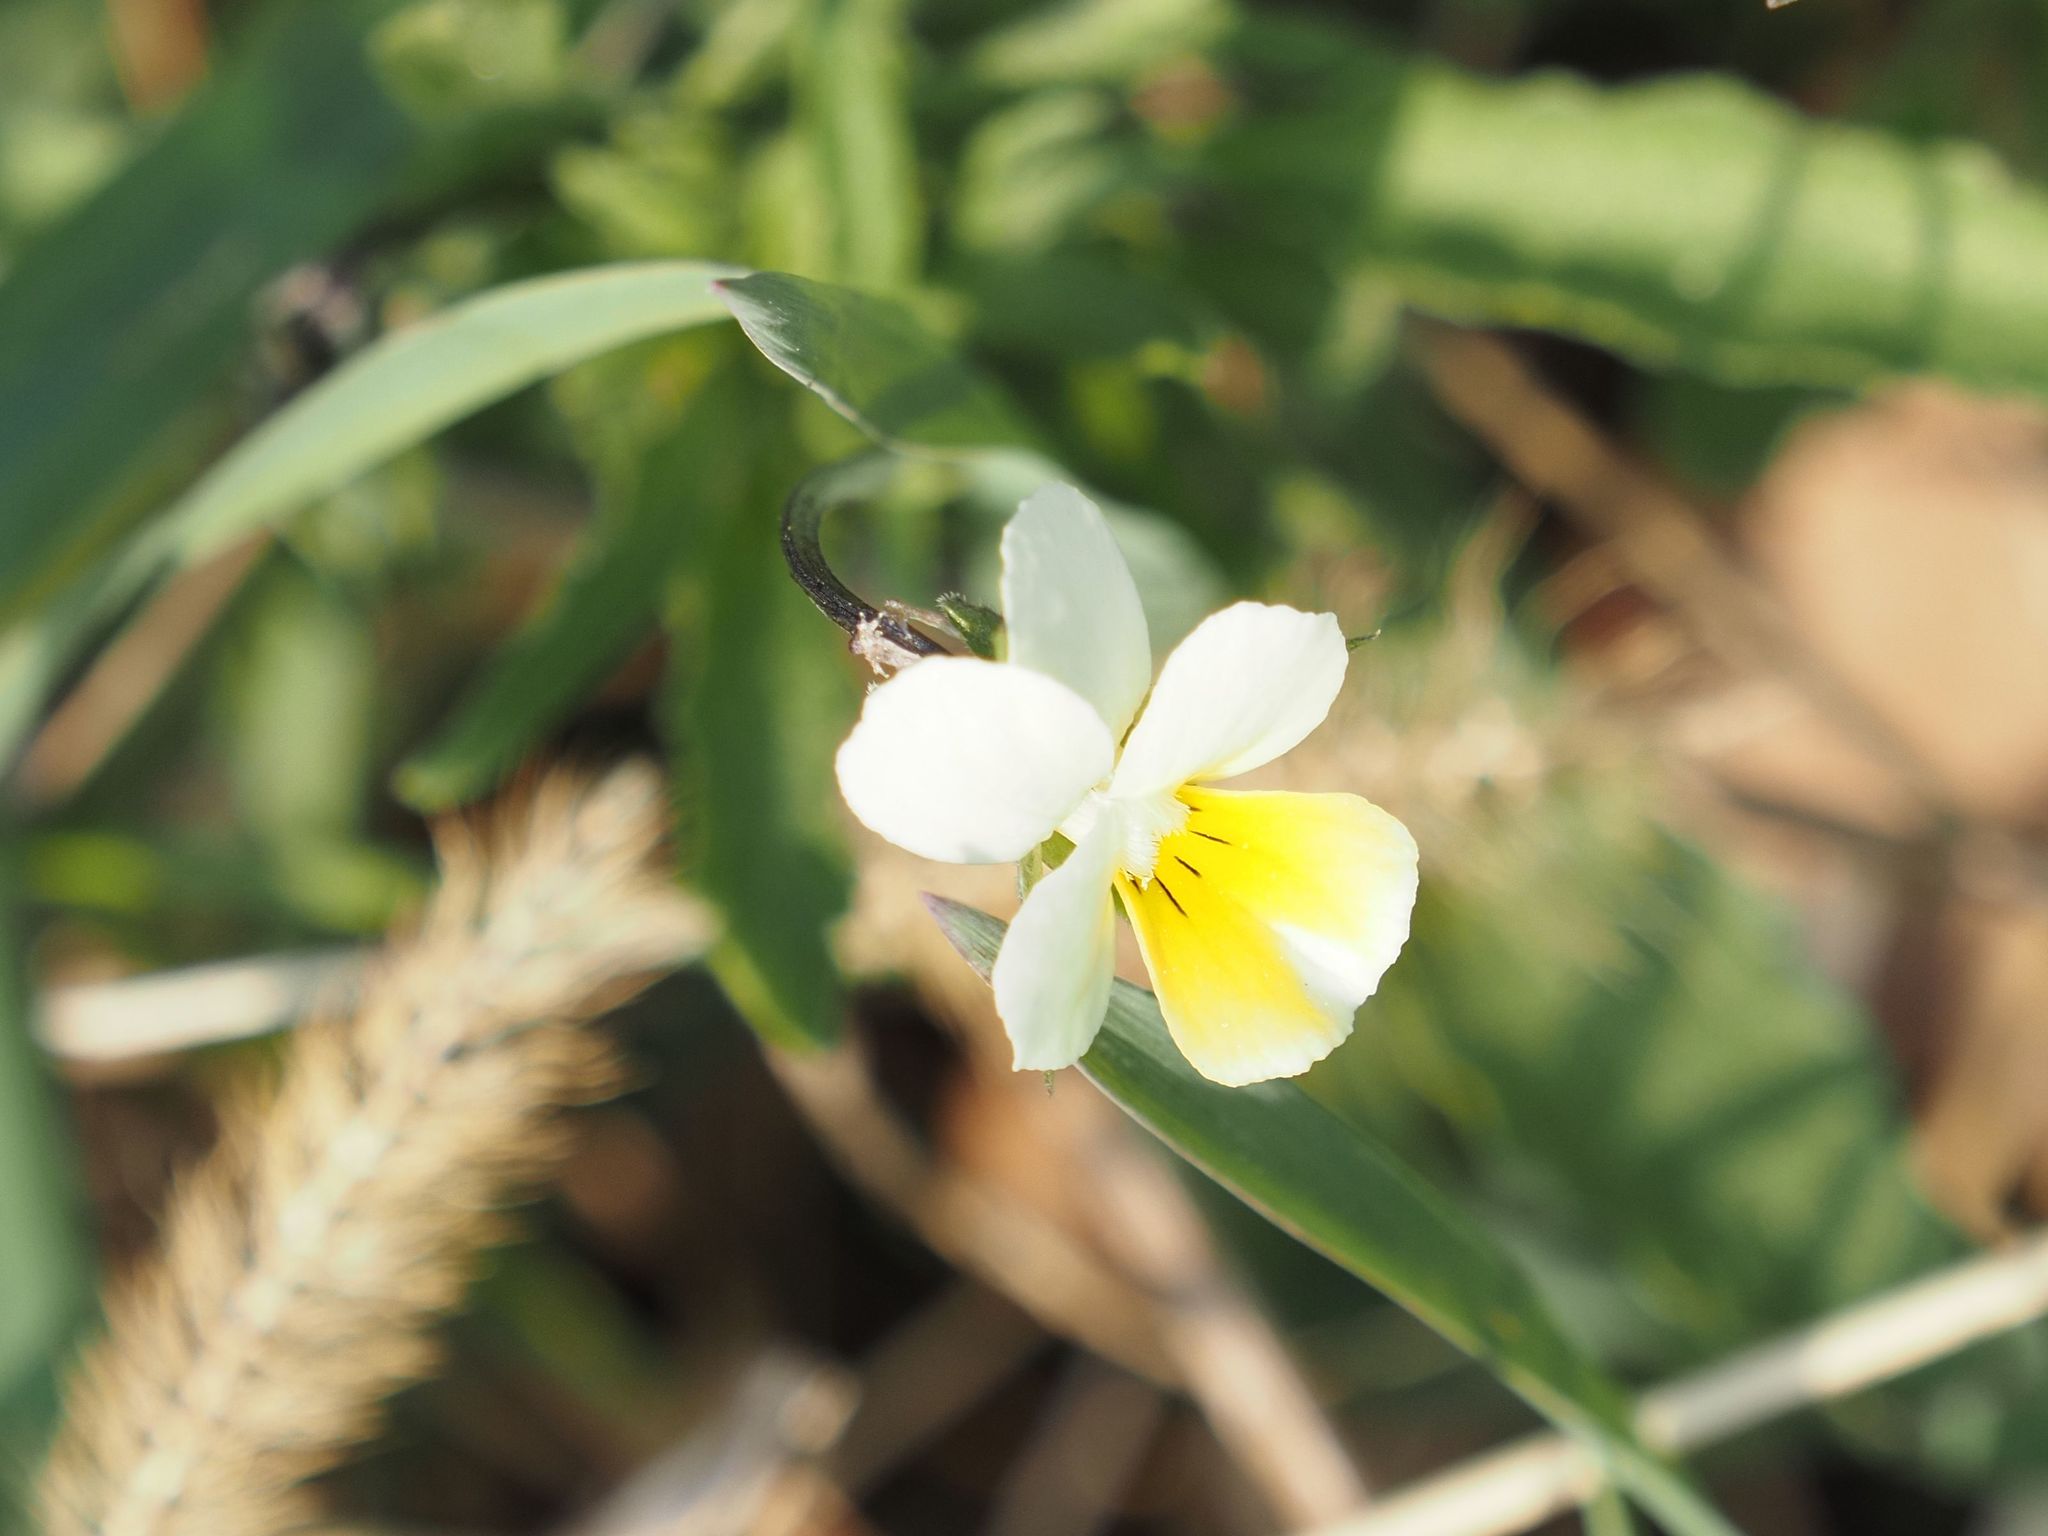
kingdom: Plantae
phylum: Tracheophyta
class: Magnoliopsida
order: Malpighiales
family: Violaceae
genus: Viola
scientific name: Viola arvensis
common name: Field pansy
